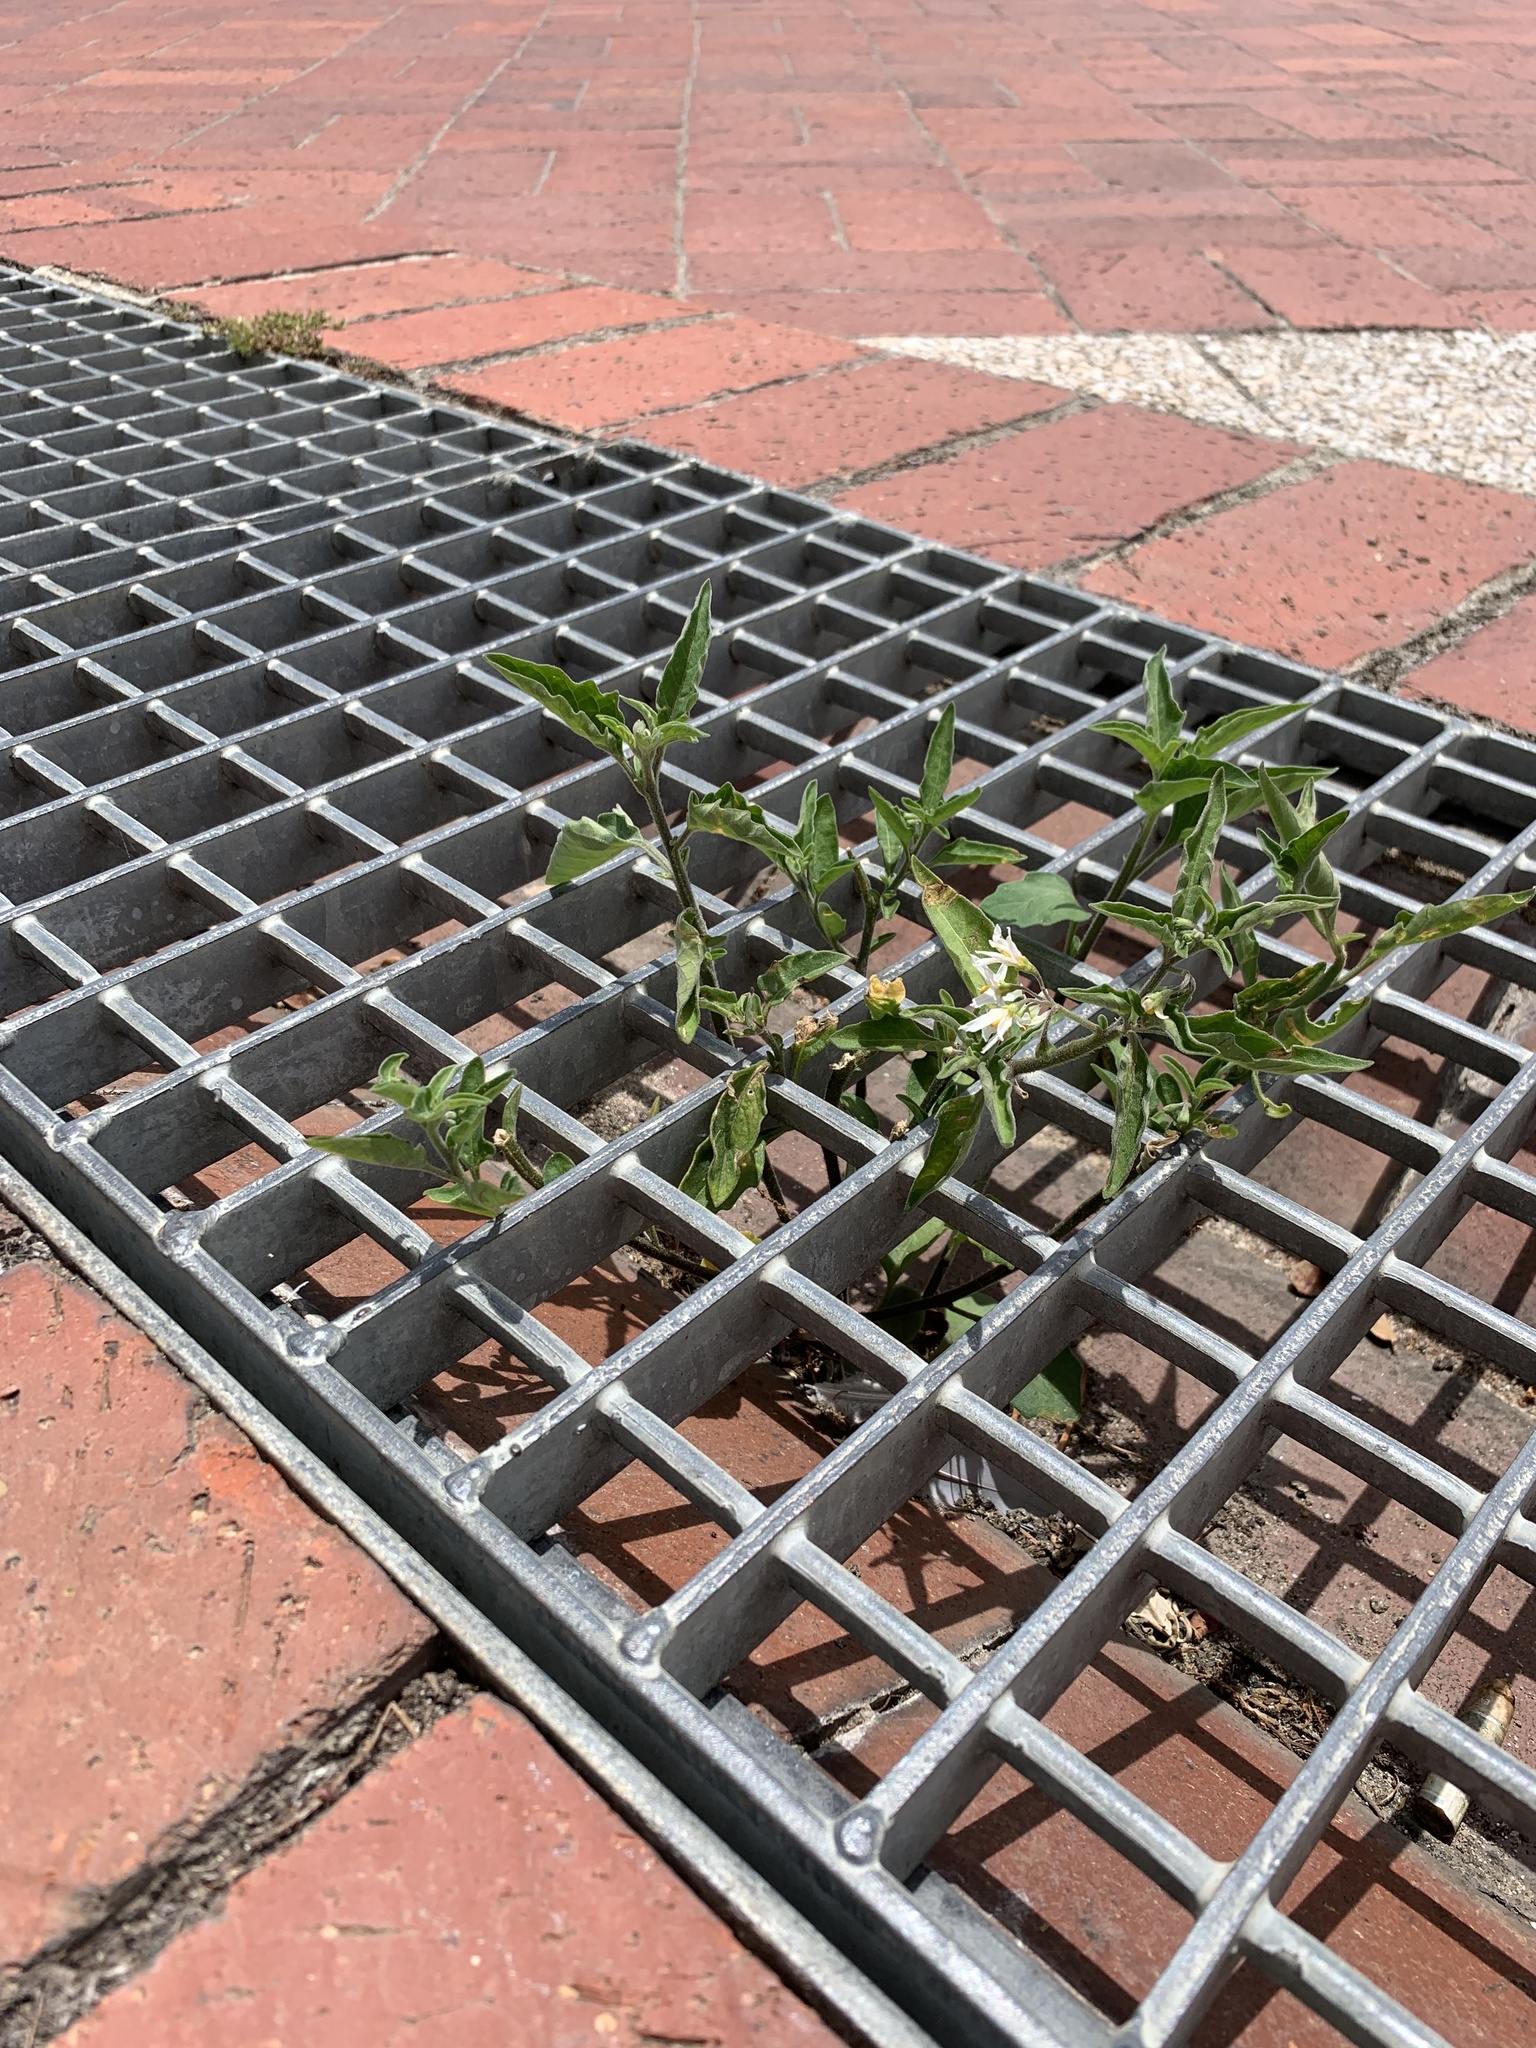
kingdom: Plantae
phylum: Tracheophyta
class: Magnoliopsida
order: Solanales
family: Solanaceae
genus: Solanum
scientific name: Solanum chenopodioides
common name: Tall nightshade
